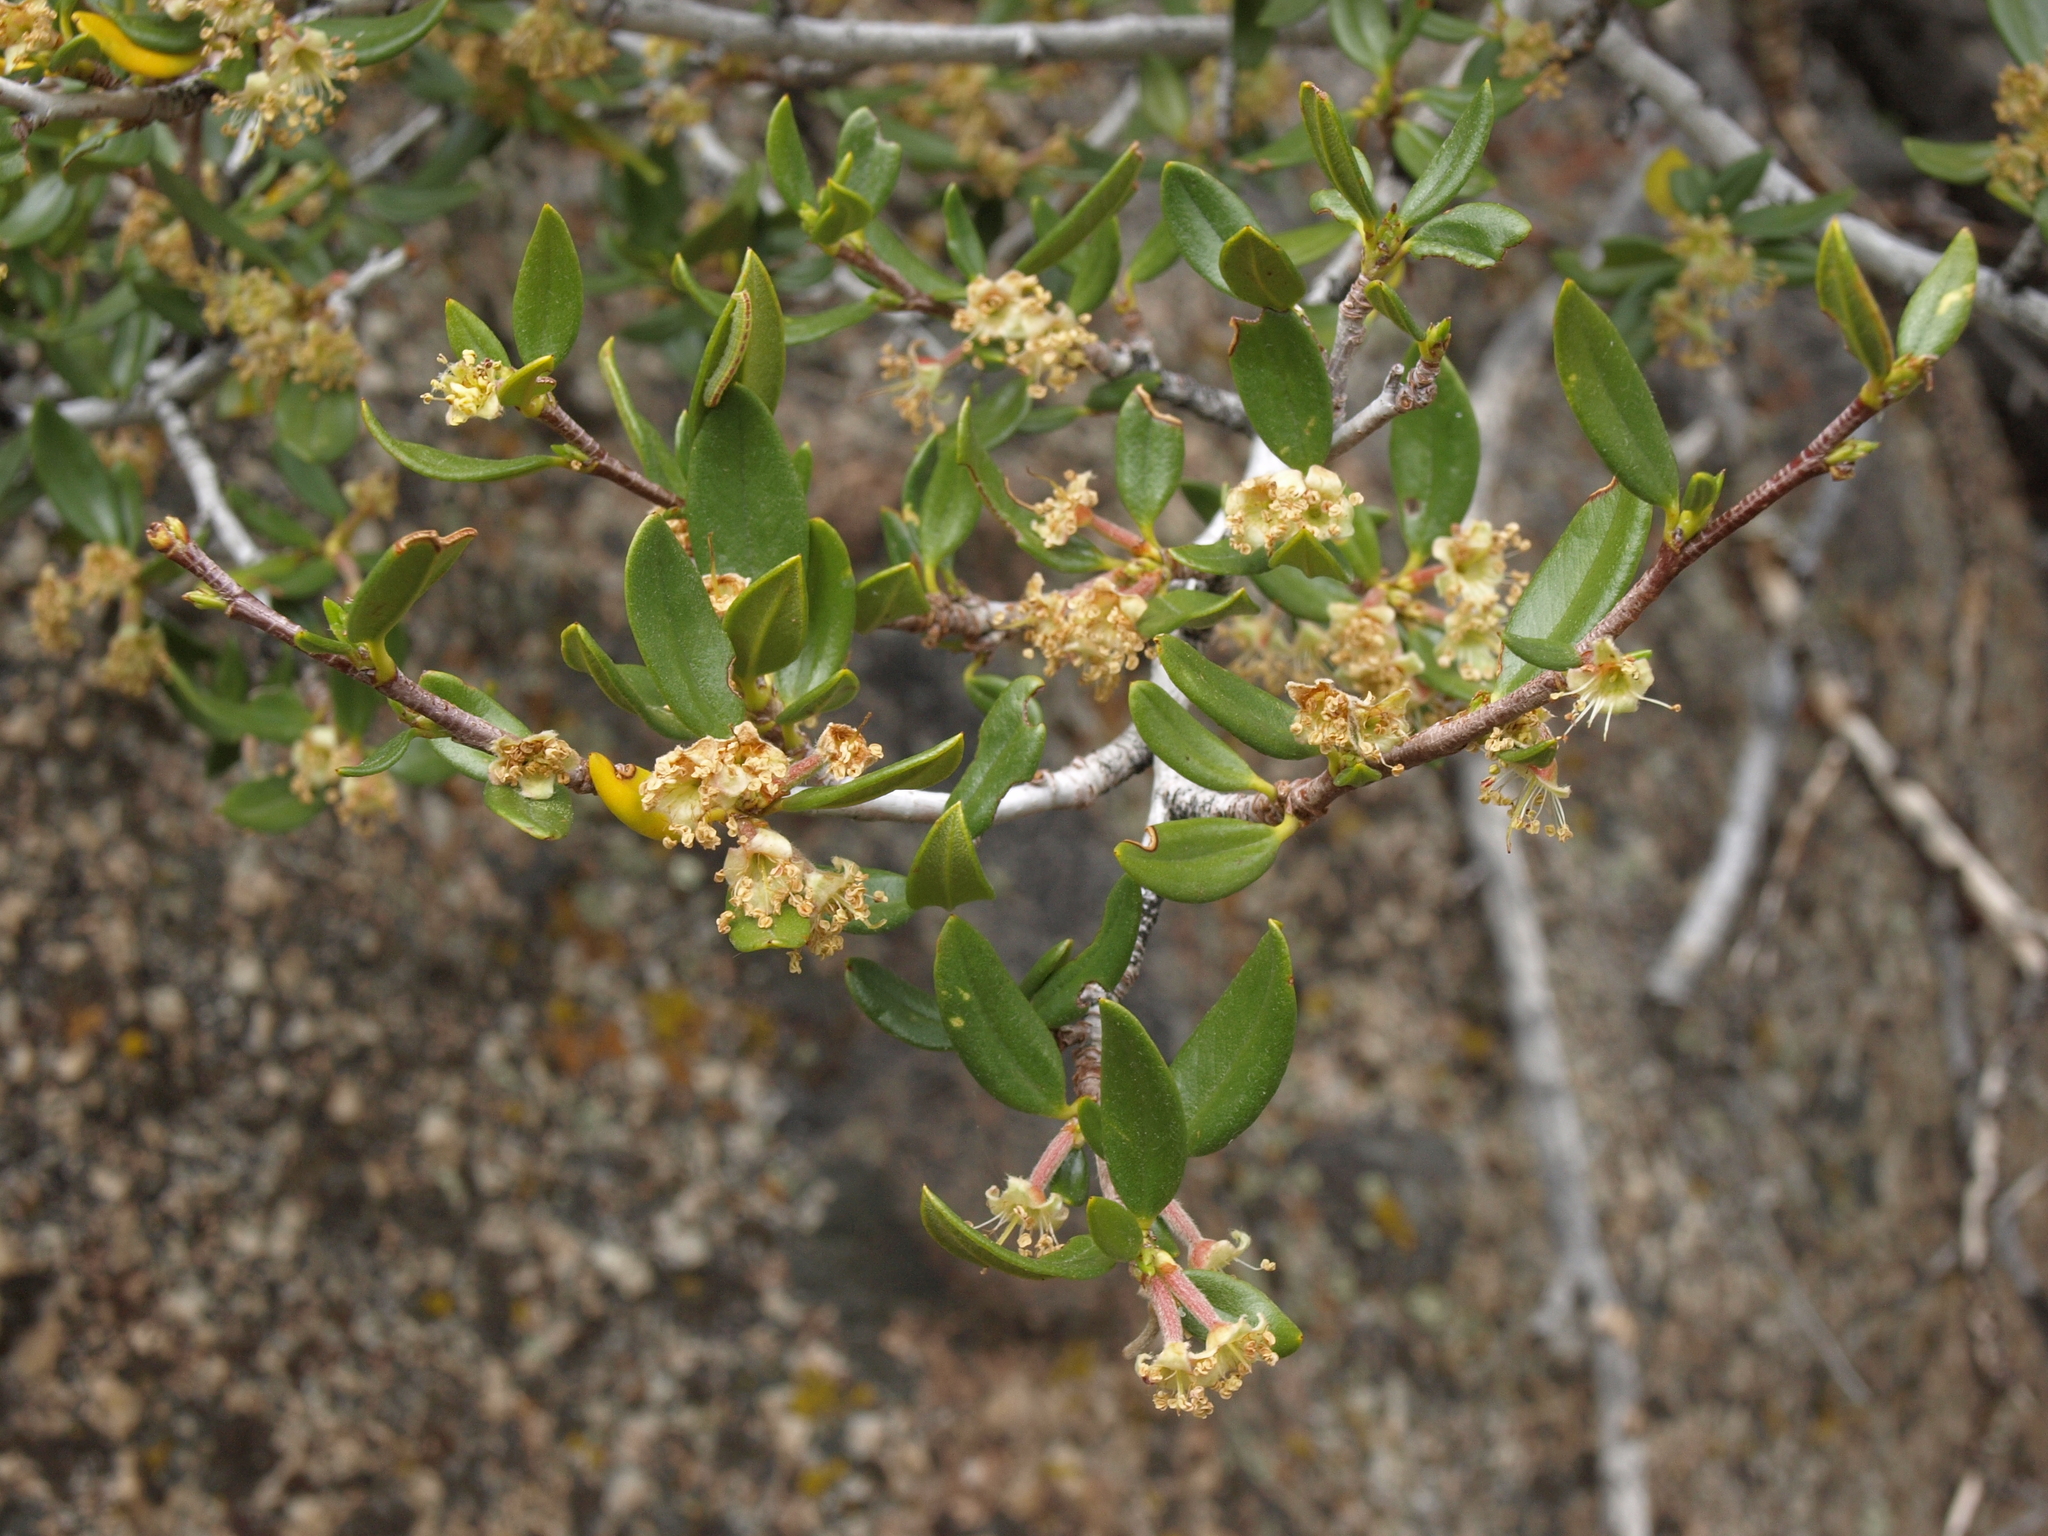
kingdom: Plantae
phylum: Tracheophyta
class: Magnoliopsida
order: Rosales
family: Rosaceae
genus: Cercocarpus
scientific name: Cercocarpus ledifolius
